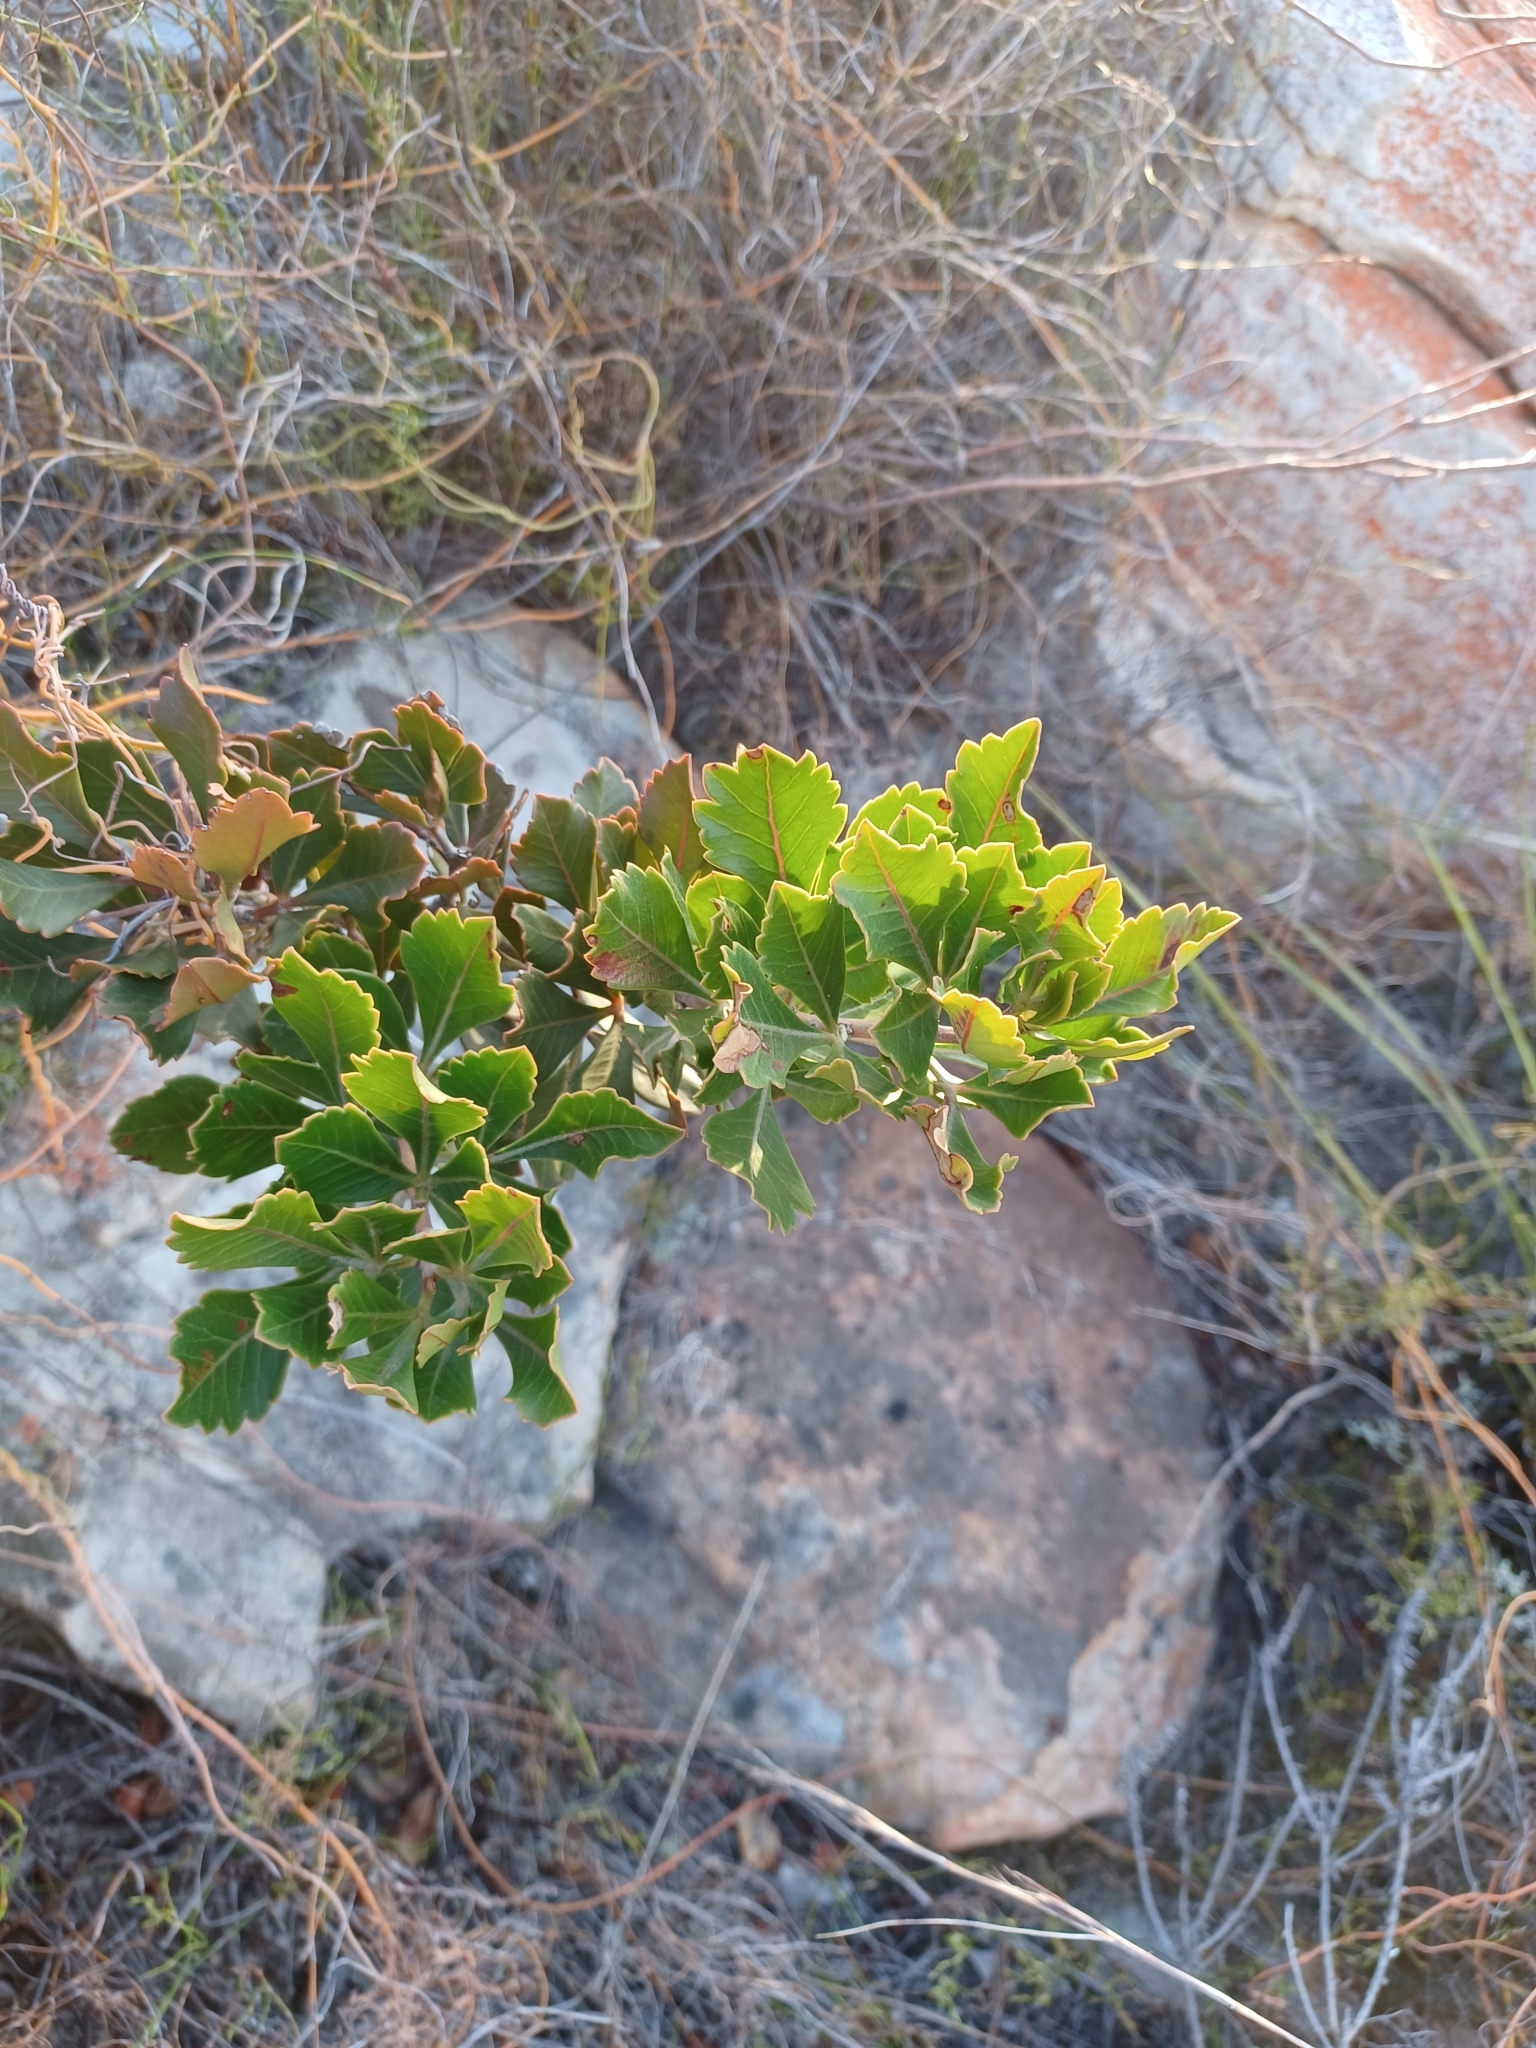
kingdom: Plantae
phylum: Tracheophyta
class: Magnoliopsida
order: Sapindales
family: Anacardiaceae
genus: Searsia
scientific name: Searsia scytophylla
